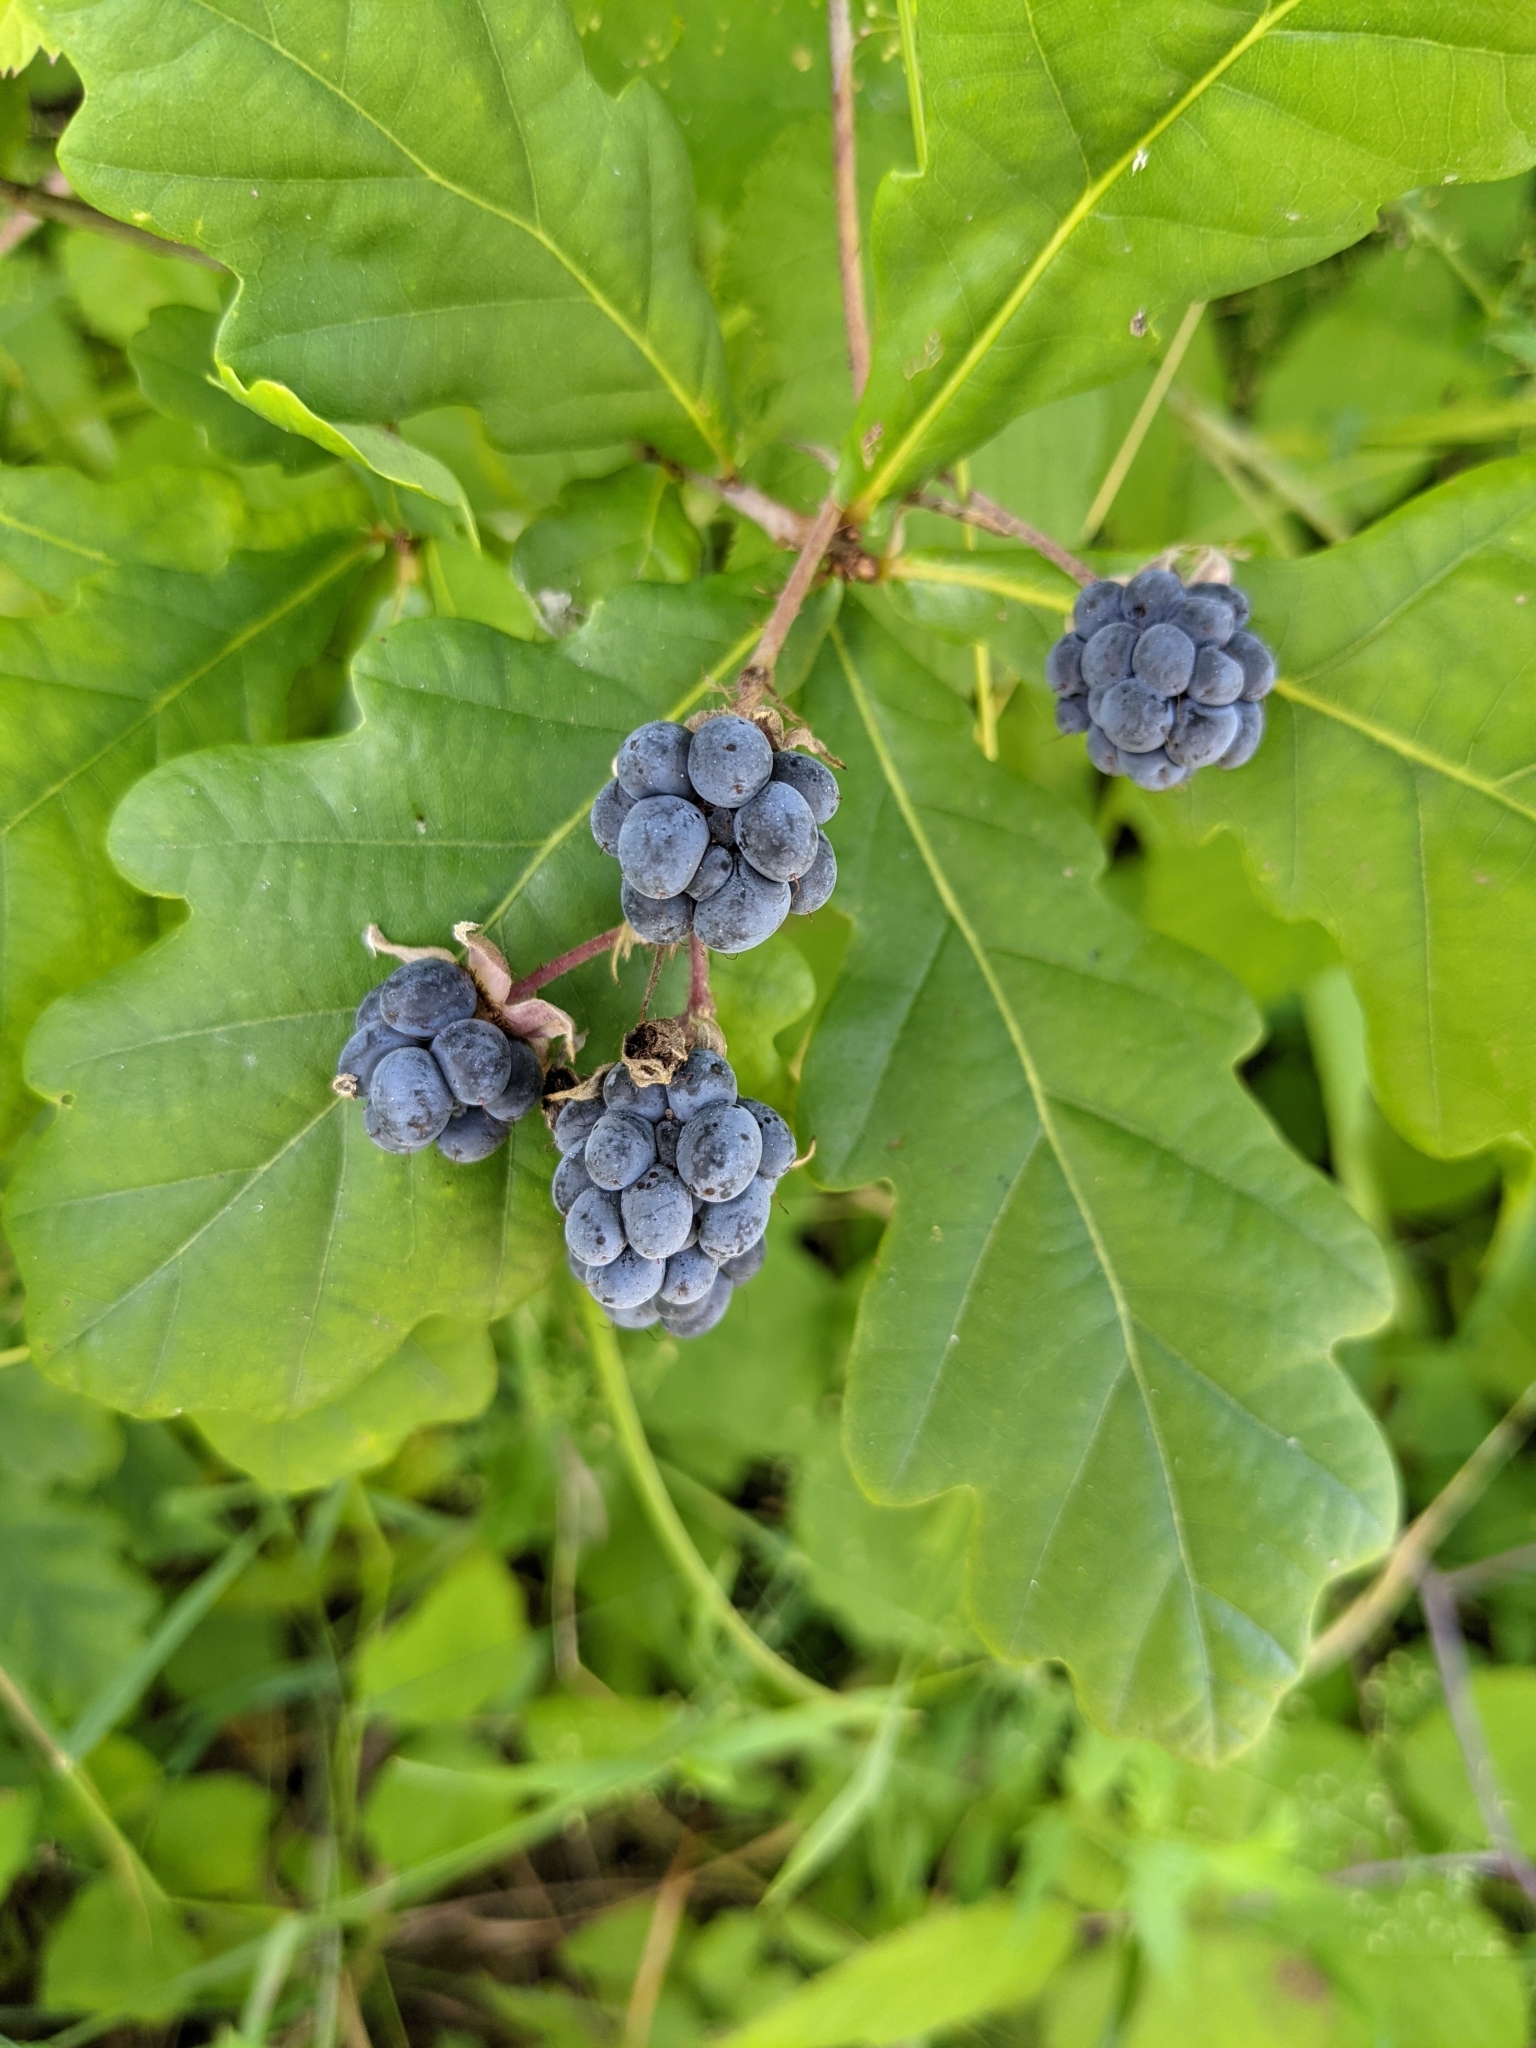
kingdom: Plantae
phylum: Tracheophyta
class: Magnoliopsida
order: Rosales
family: Rosaceae
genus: Rubus
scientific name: Rubus caesius
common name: Dewberry
